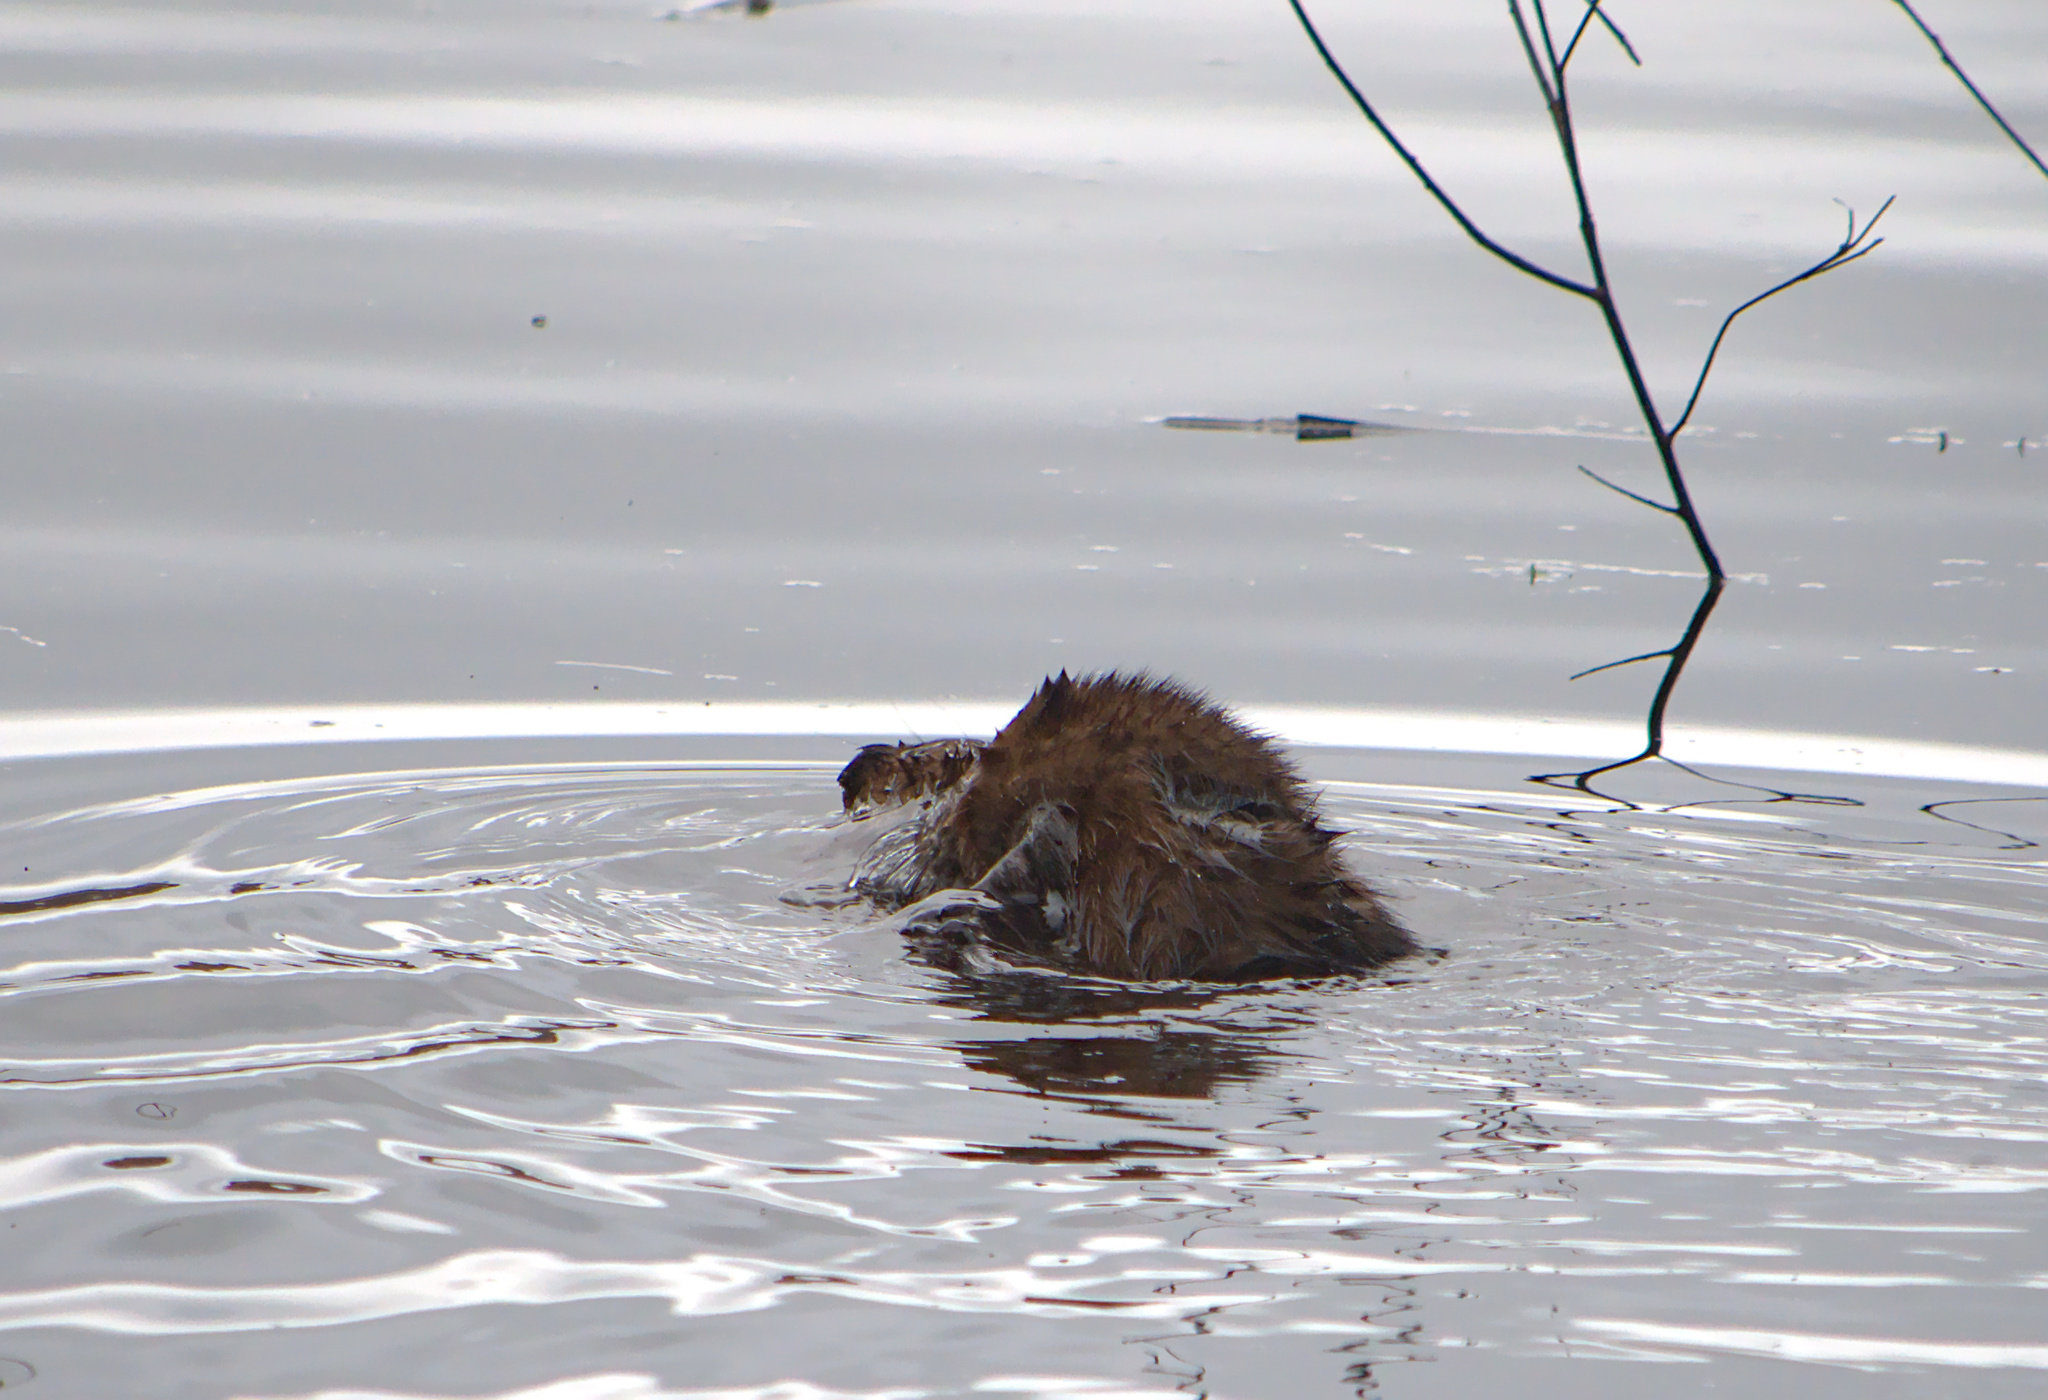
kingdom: Animalia
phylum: Chordata
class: Mammalia
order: Rodentia
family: Cricetidae
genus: Ondatra
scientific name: Ondatra zibethicus
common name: Muskrat
